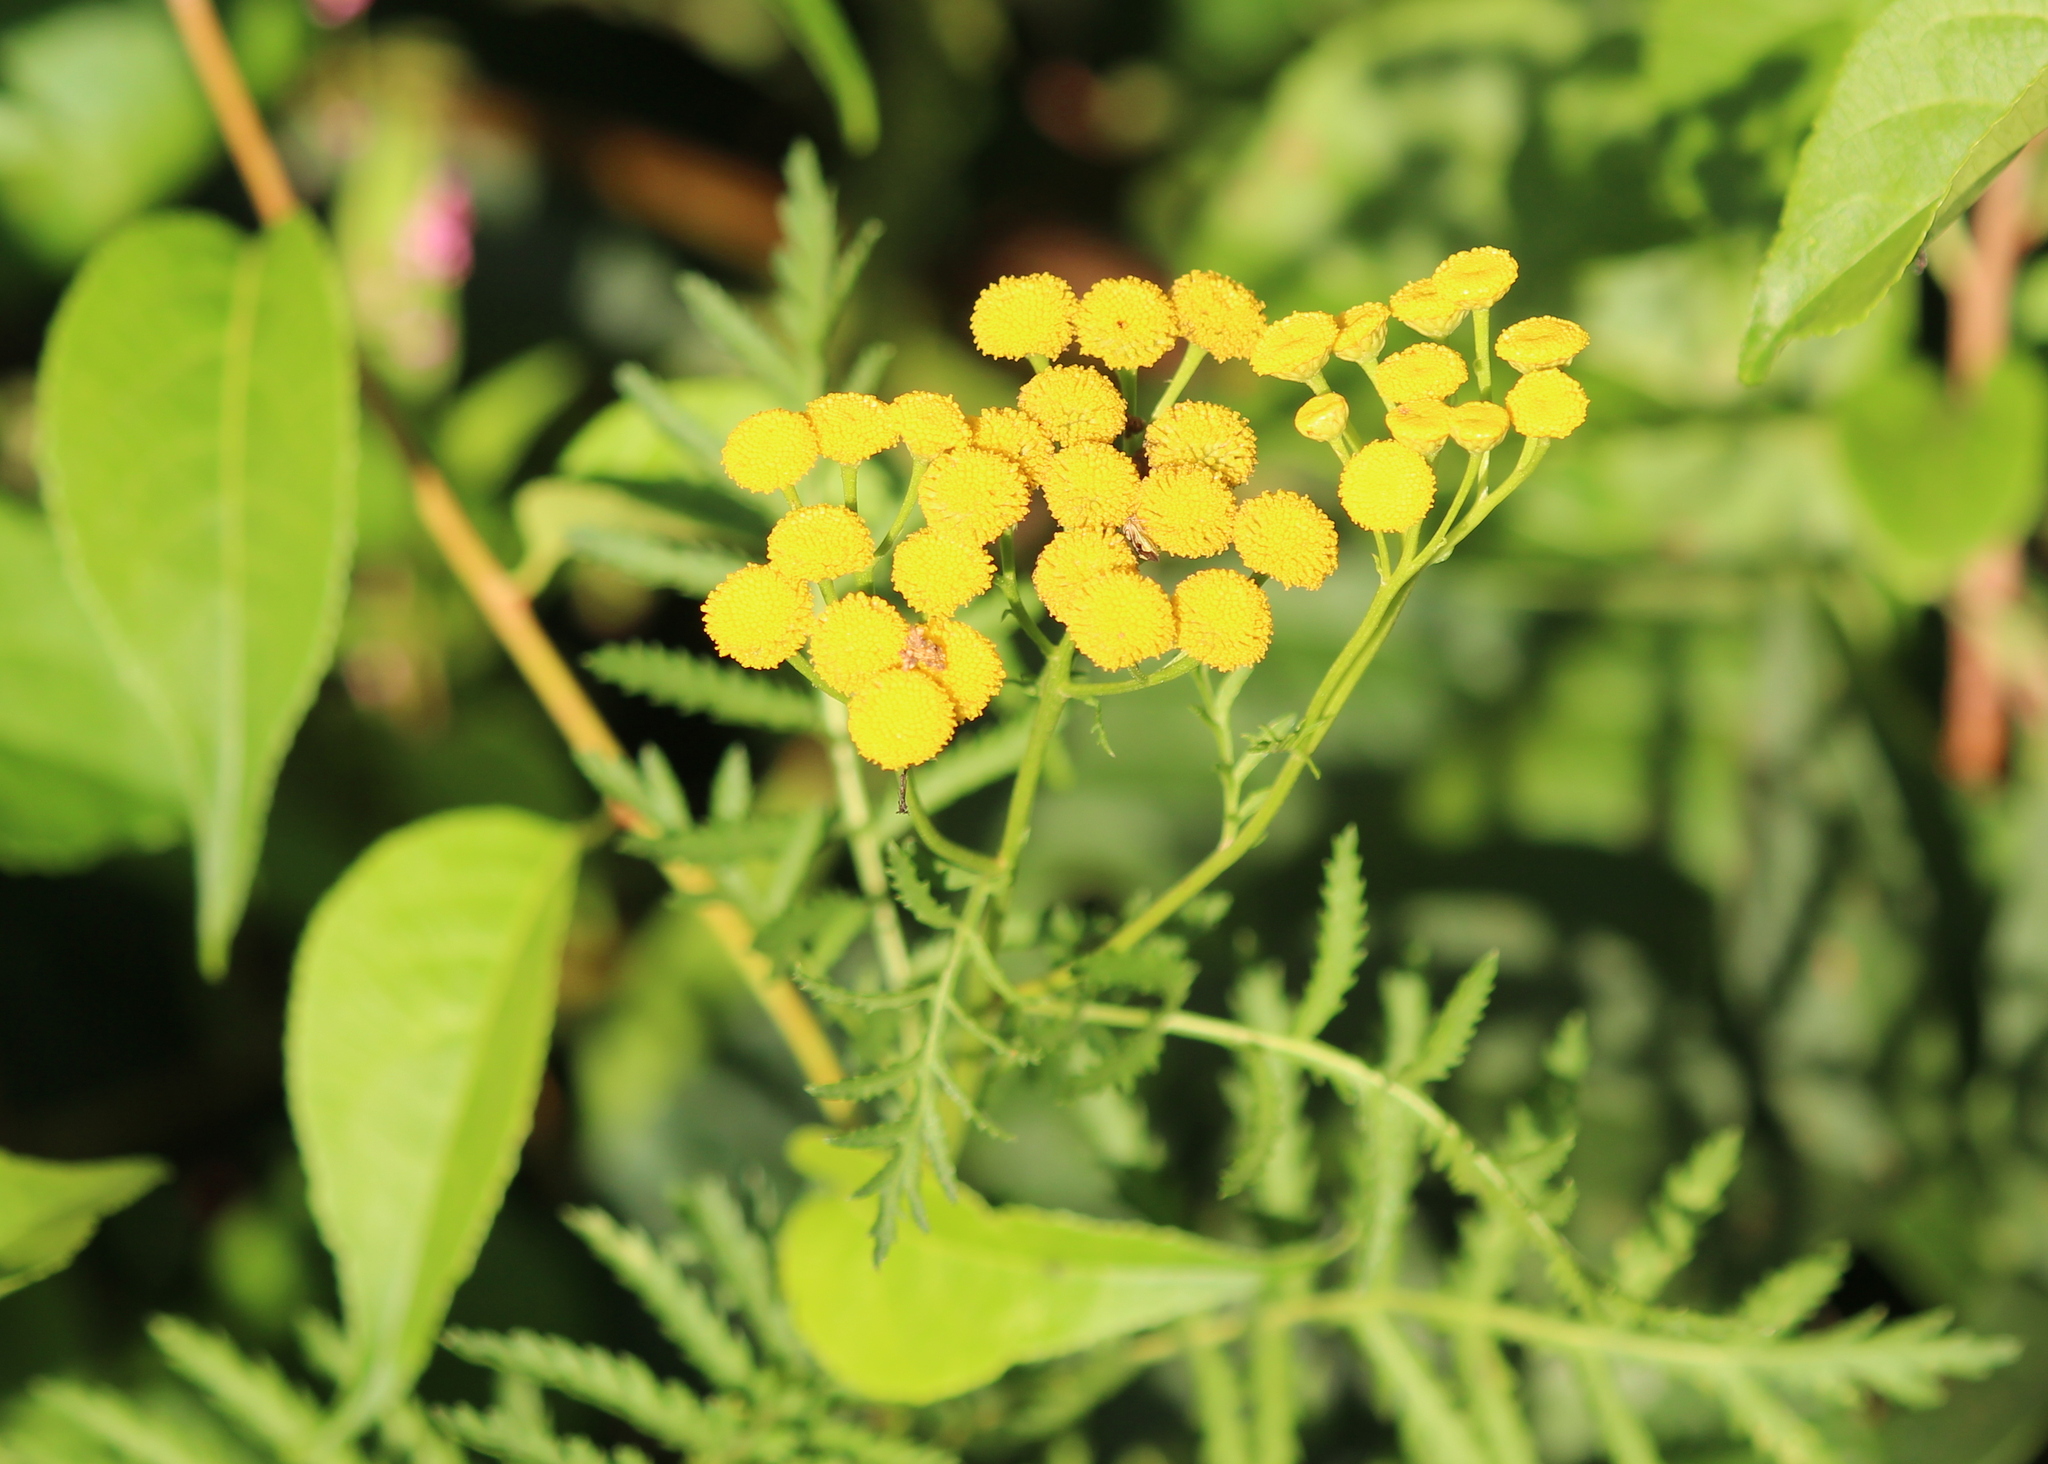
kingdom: Plantae
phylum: Tracheophyta
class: Magnoliopsida
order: Asterales
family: Asteraceae
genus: Tanacetum
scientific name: Tanacetum vulgare
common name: Common tansy
